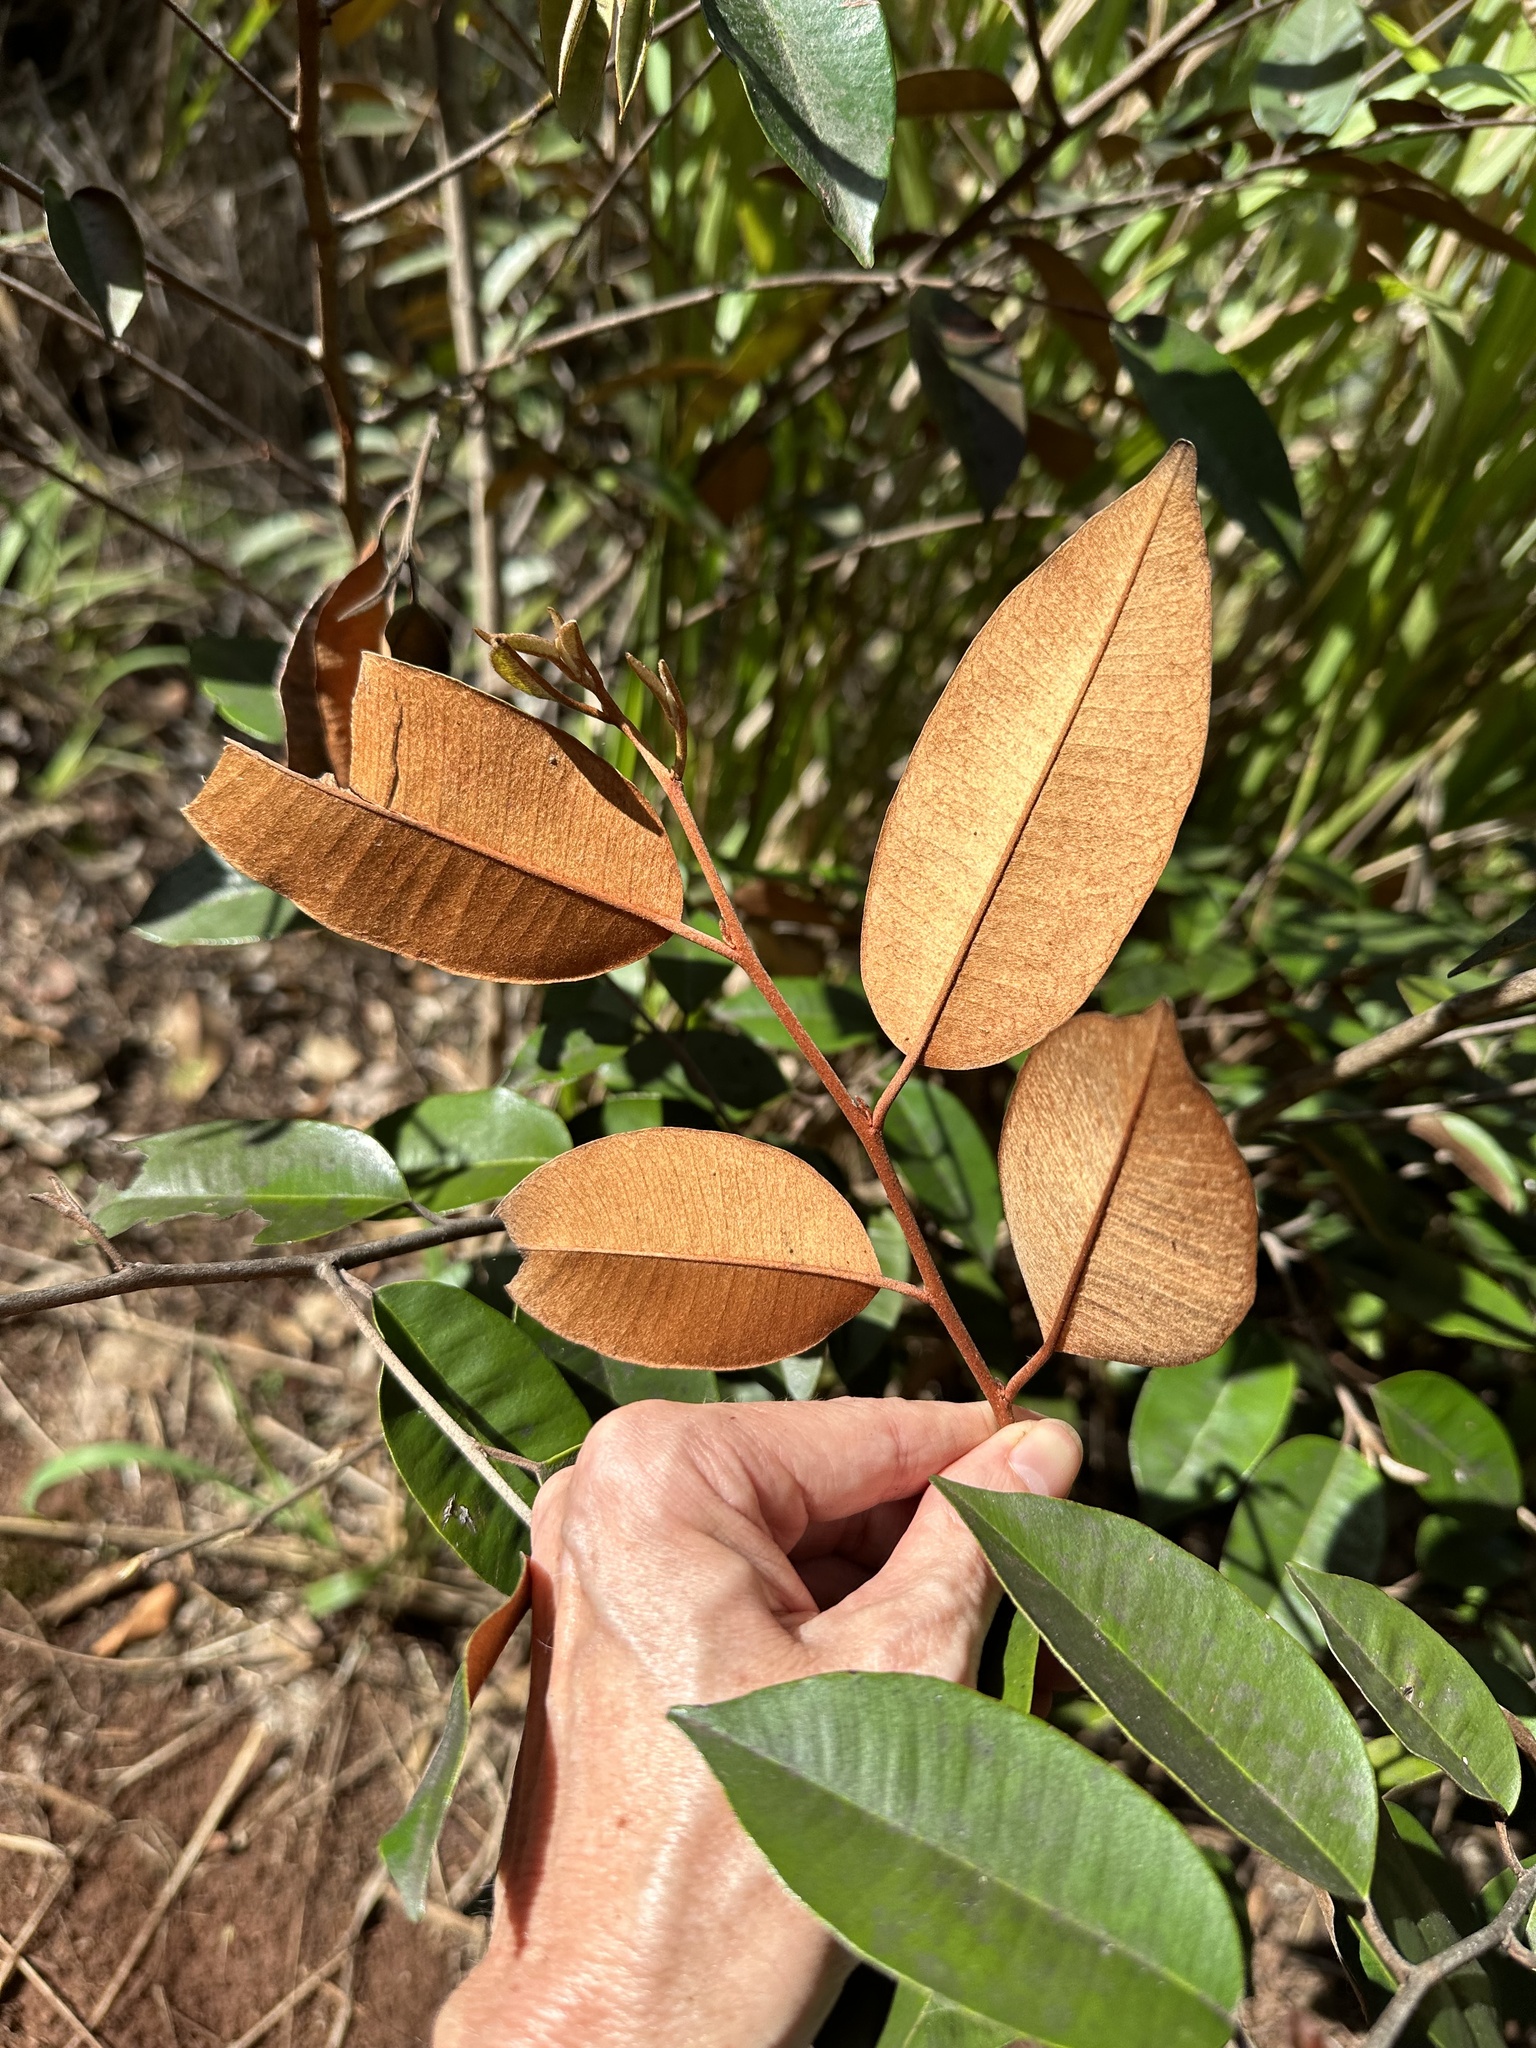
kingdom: Plantae
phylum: Tracheophyta
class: Magnoliopsida
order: Ericales
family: Sapotaceae
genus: Chrysophyllum
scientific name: Chrysophyllum oliviforme
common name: Satinleaf
